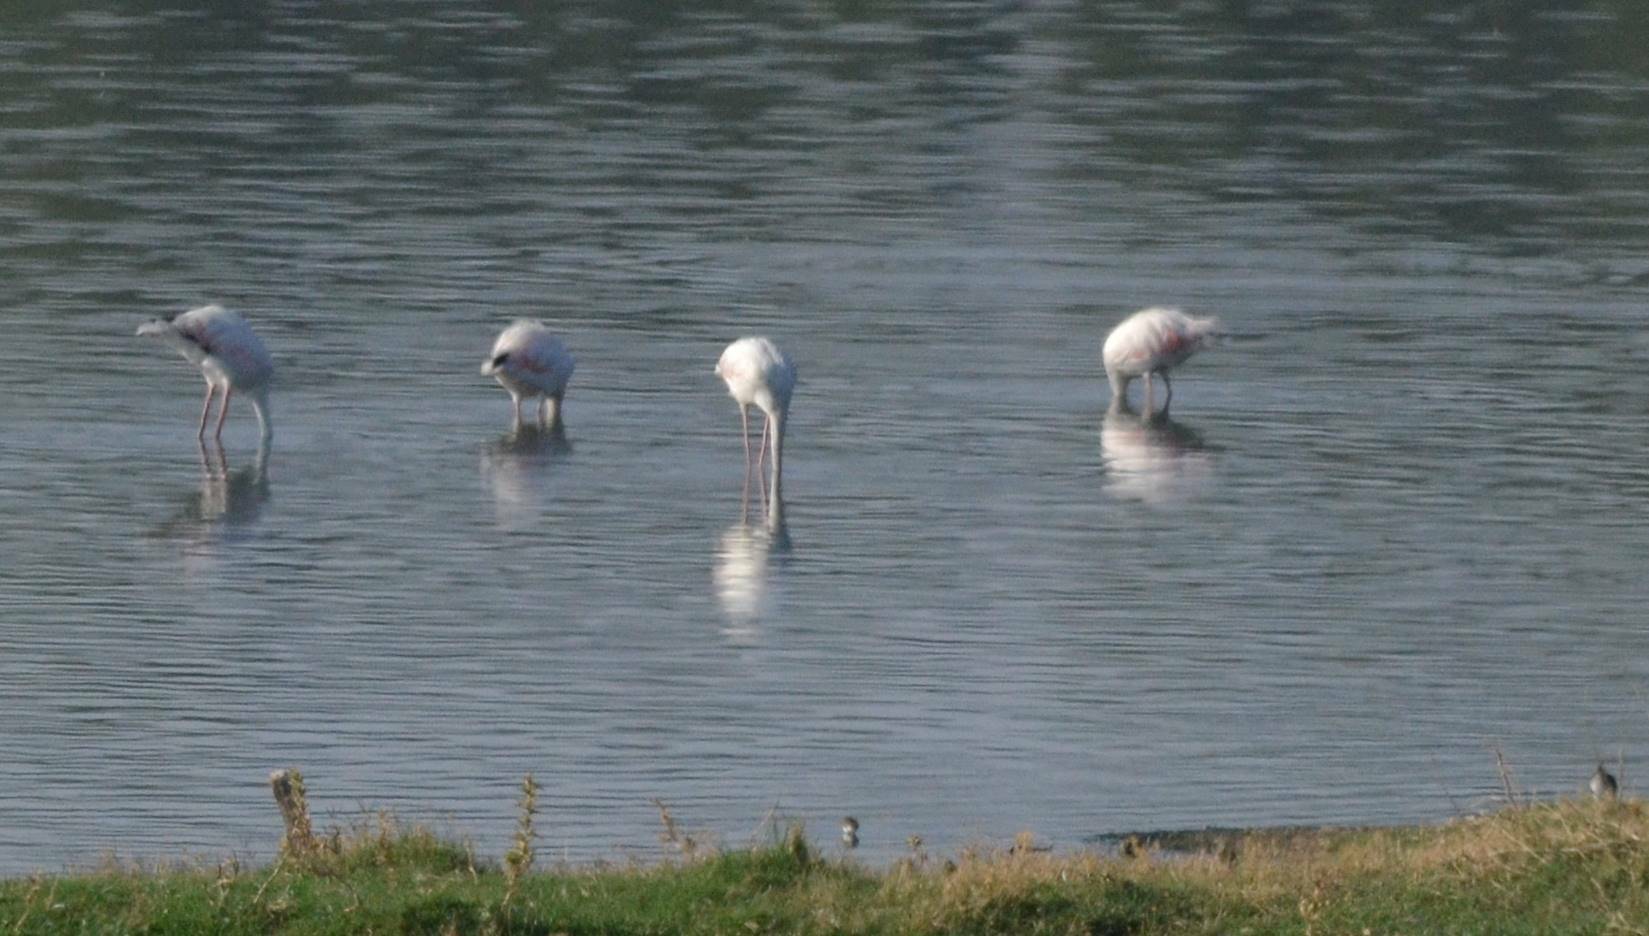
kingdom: Animalia
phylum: Chordata
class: Aves
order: Phoenicopteriformes
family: Phoenicopteridae
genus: Phoenicopterus
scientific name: Phoenicopterus roseus
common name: Greater flamingo
